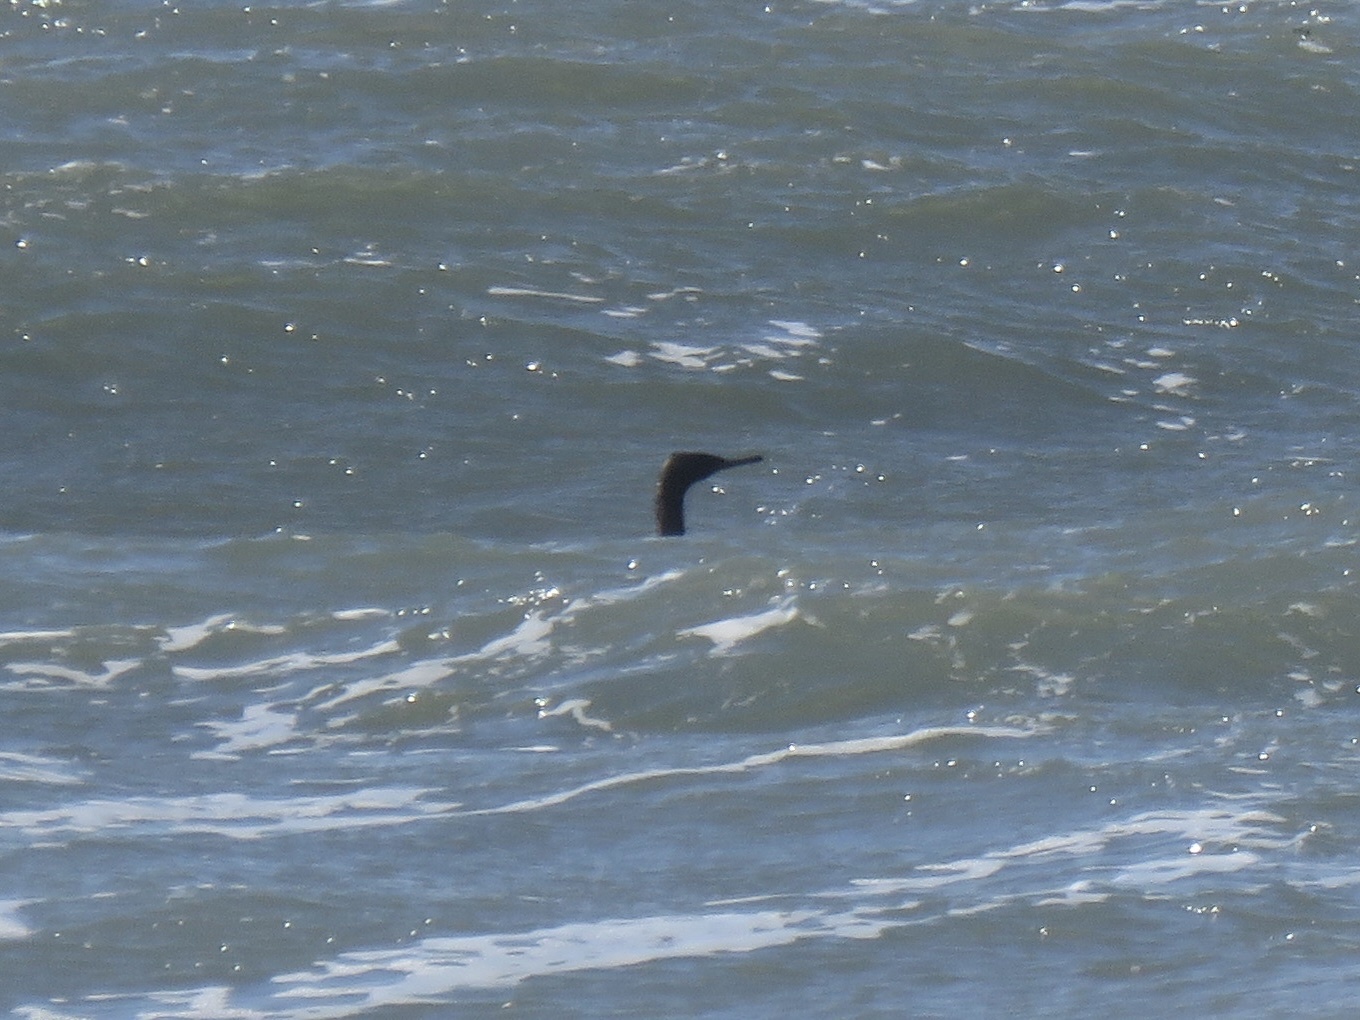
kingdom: Animalia
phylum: Chordata
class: Aves
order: Suliformes
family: Phalacrocoracidae
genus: Phalacrocorax
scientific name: Phalacrocorax pelagicus
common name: Pelagic cormorant
